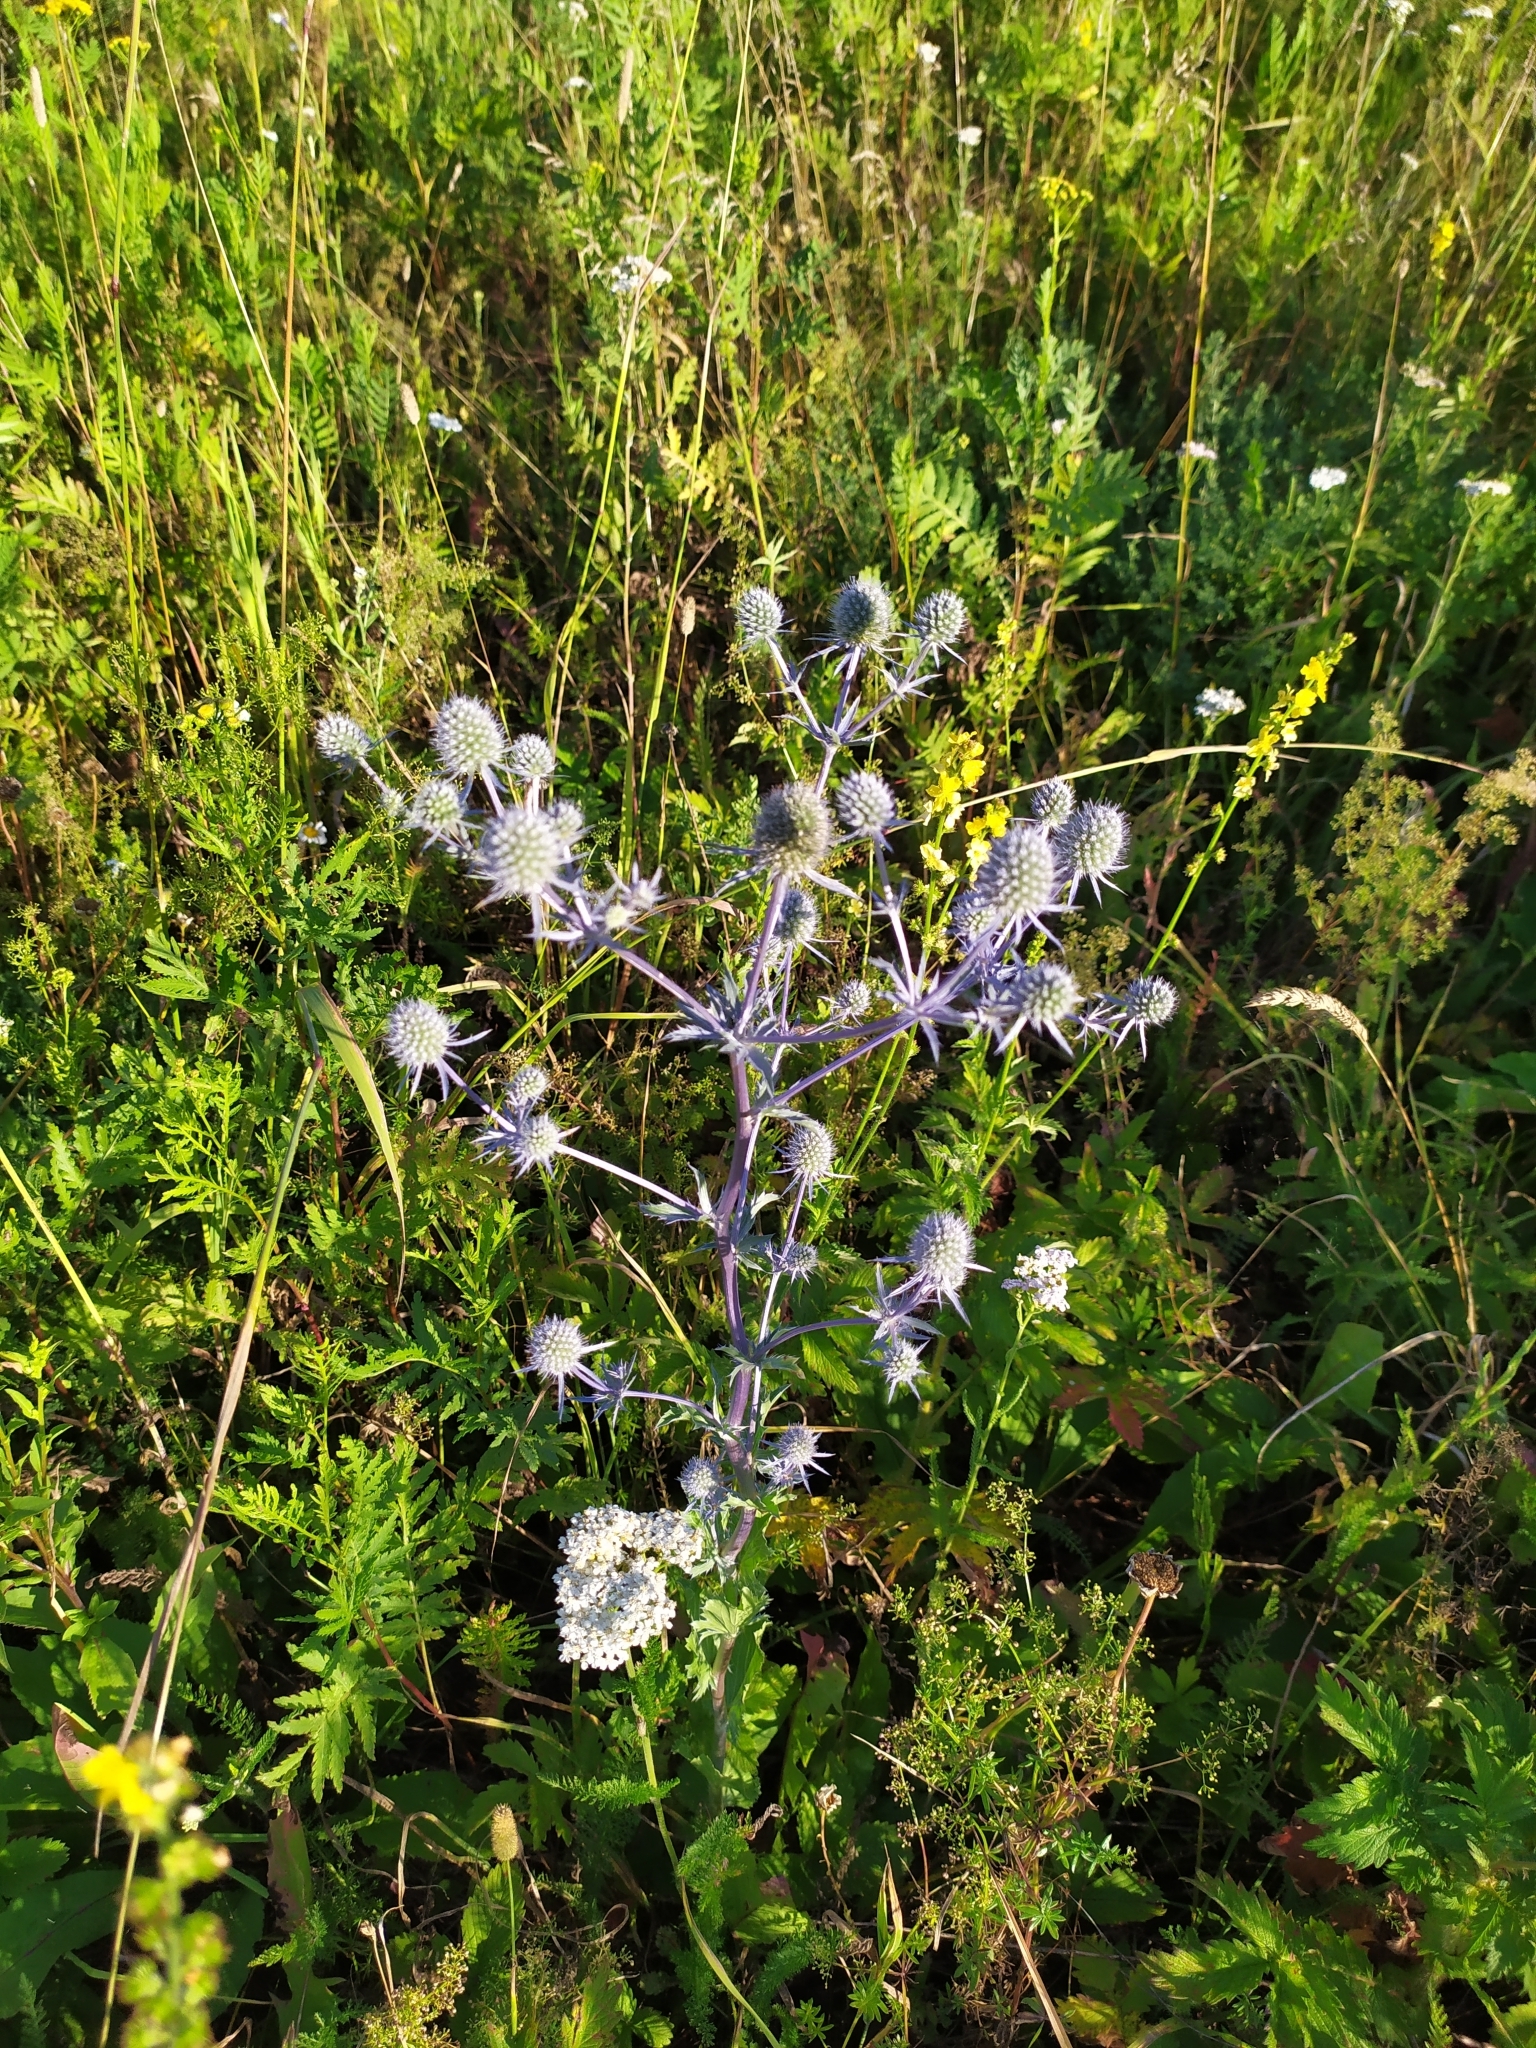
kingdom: Plantae
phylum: Tracheophyta
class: Magnoliopsida
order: Apiales
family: Apiaceae
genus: Eryngium
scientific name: Eryngium planum
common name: Blue eryngo
